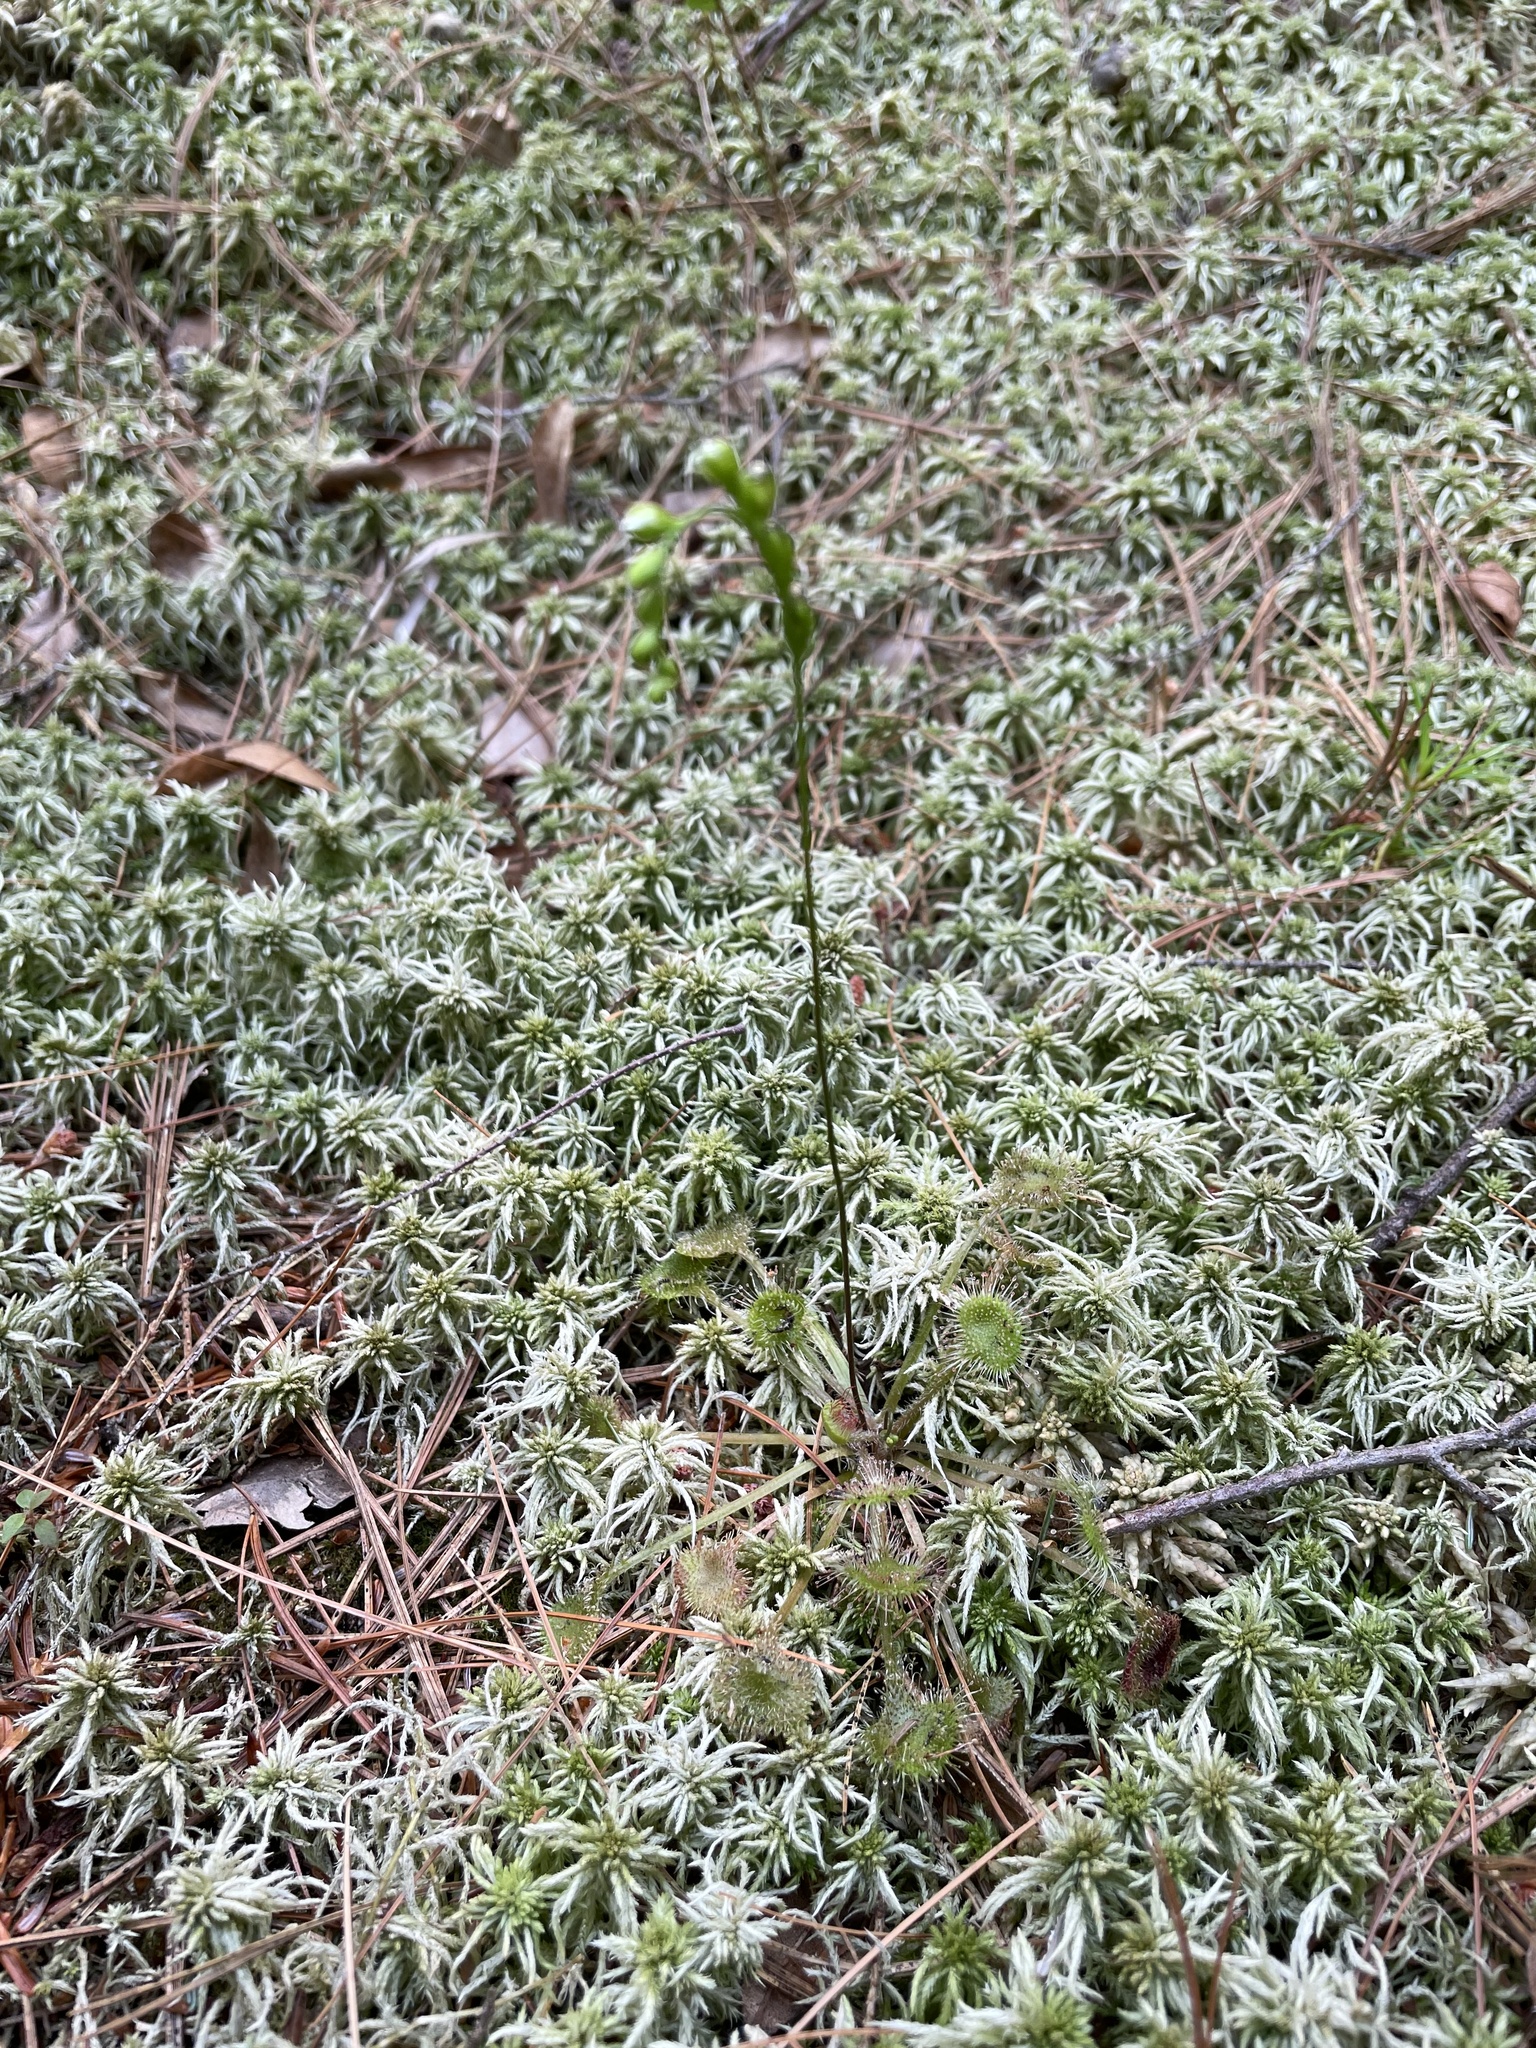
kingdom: Plantae
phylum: Tracheophyta
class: Magnoliopsida
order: Caryophyllales
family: Droseraceae
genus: Drosera
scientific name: Drosera rotundifolia
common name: Round-leaved sundew
